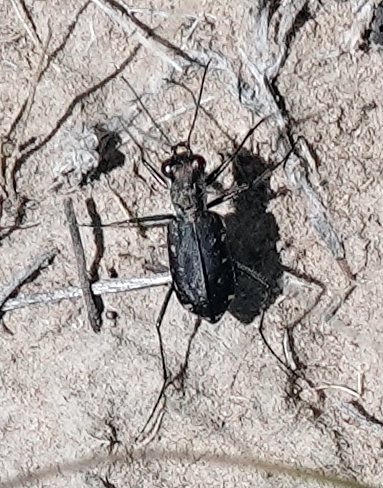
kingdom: Animalia
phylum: Arthropoda
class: Insecta
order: Coleoptera
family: Carabidae
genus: Cicindela
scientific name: Cicindela punctulata
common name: Punctured tiger beetle
